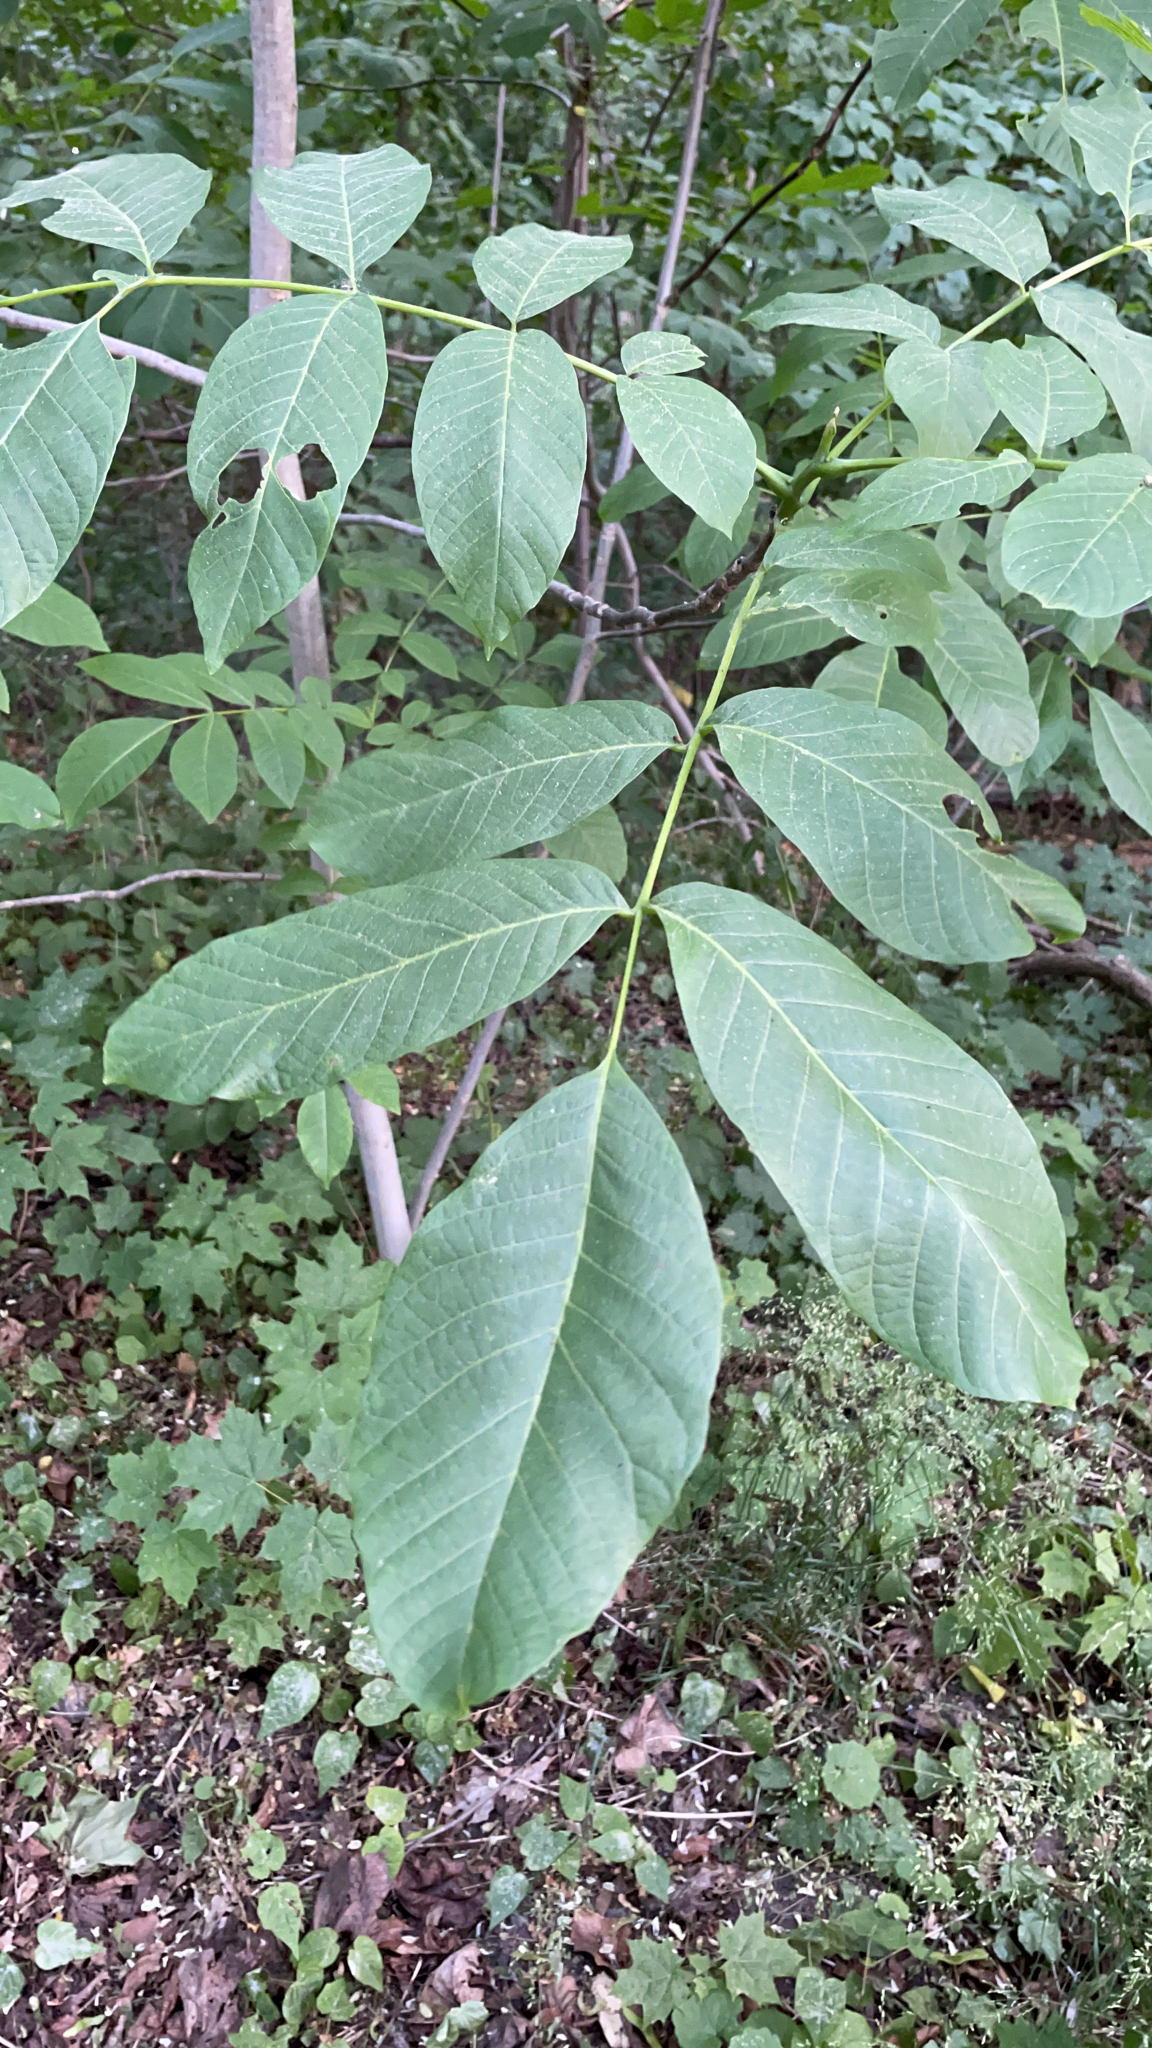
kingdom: Plantae
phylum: Tracheophyta
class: Magnoliopsida
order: Fagales
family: Juglandaceae
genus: Juglans
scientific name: Juglans regia
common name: Walnut
